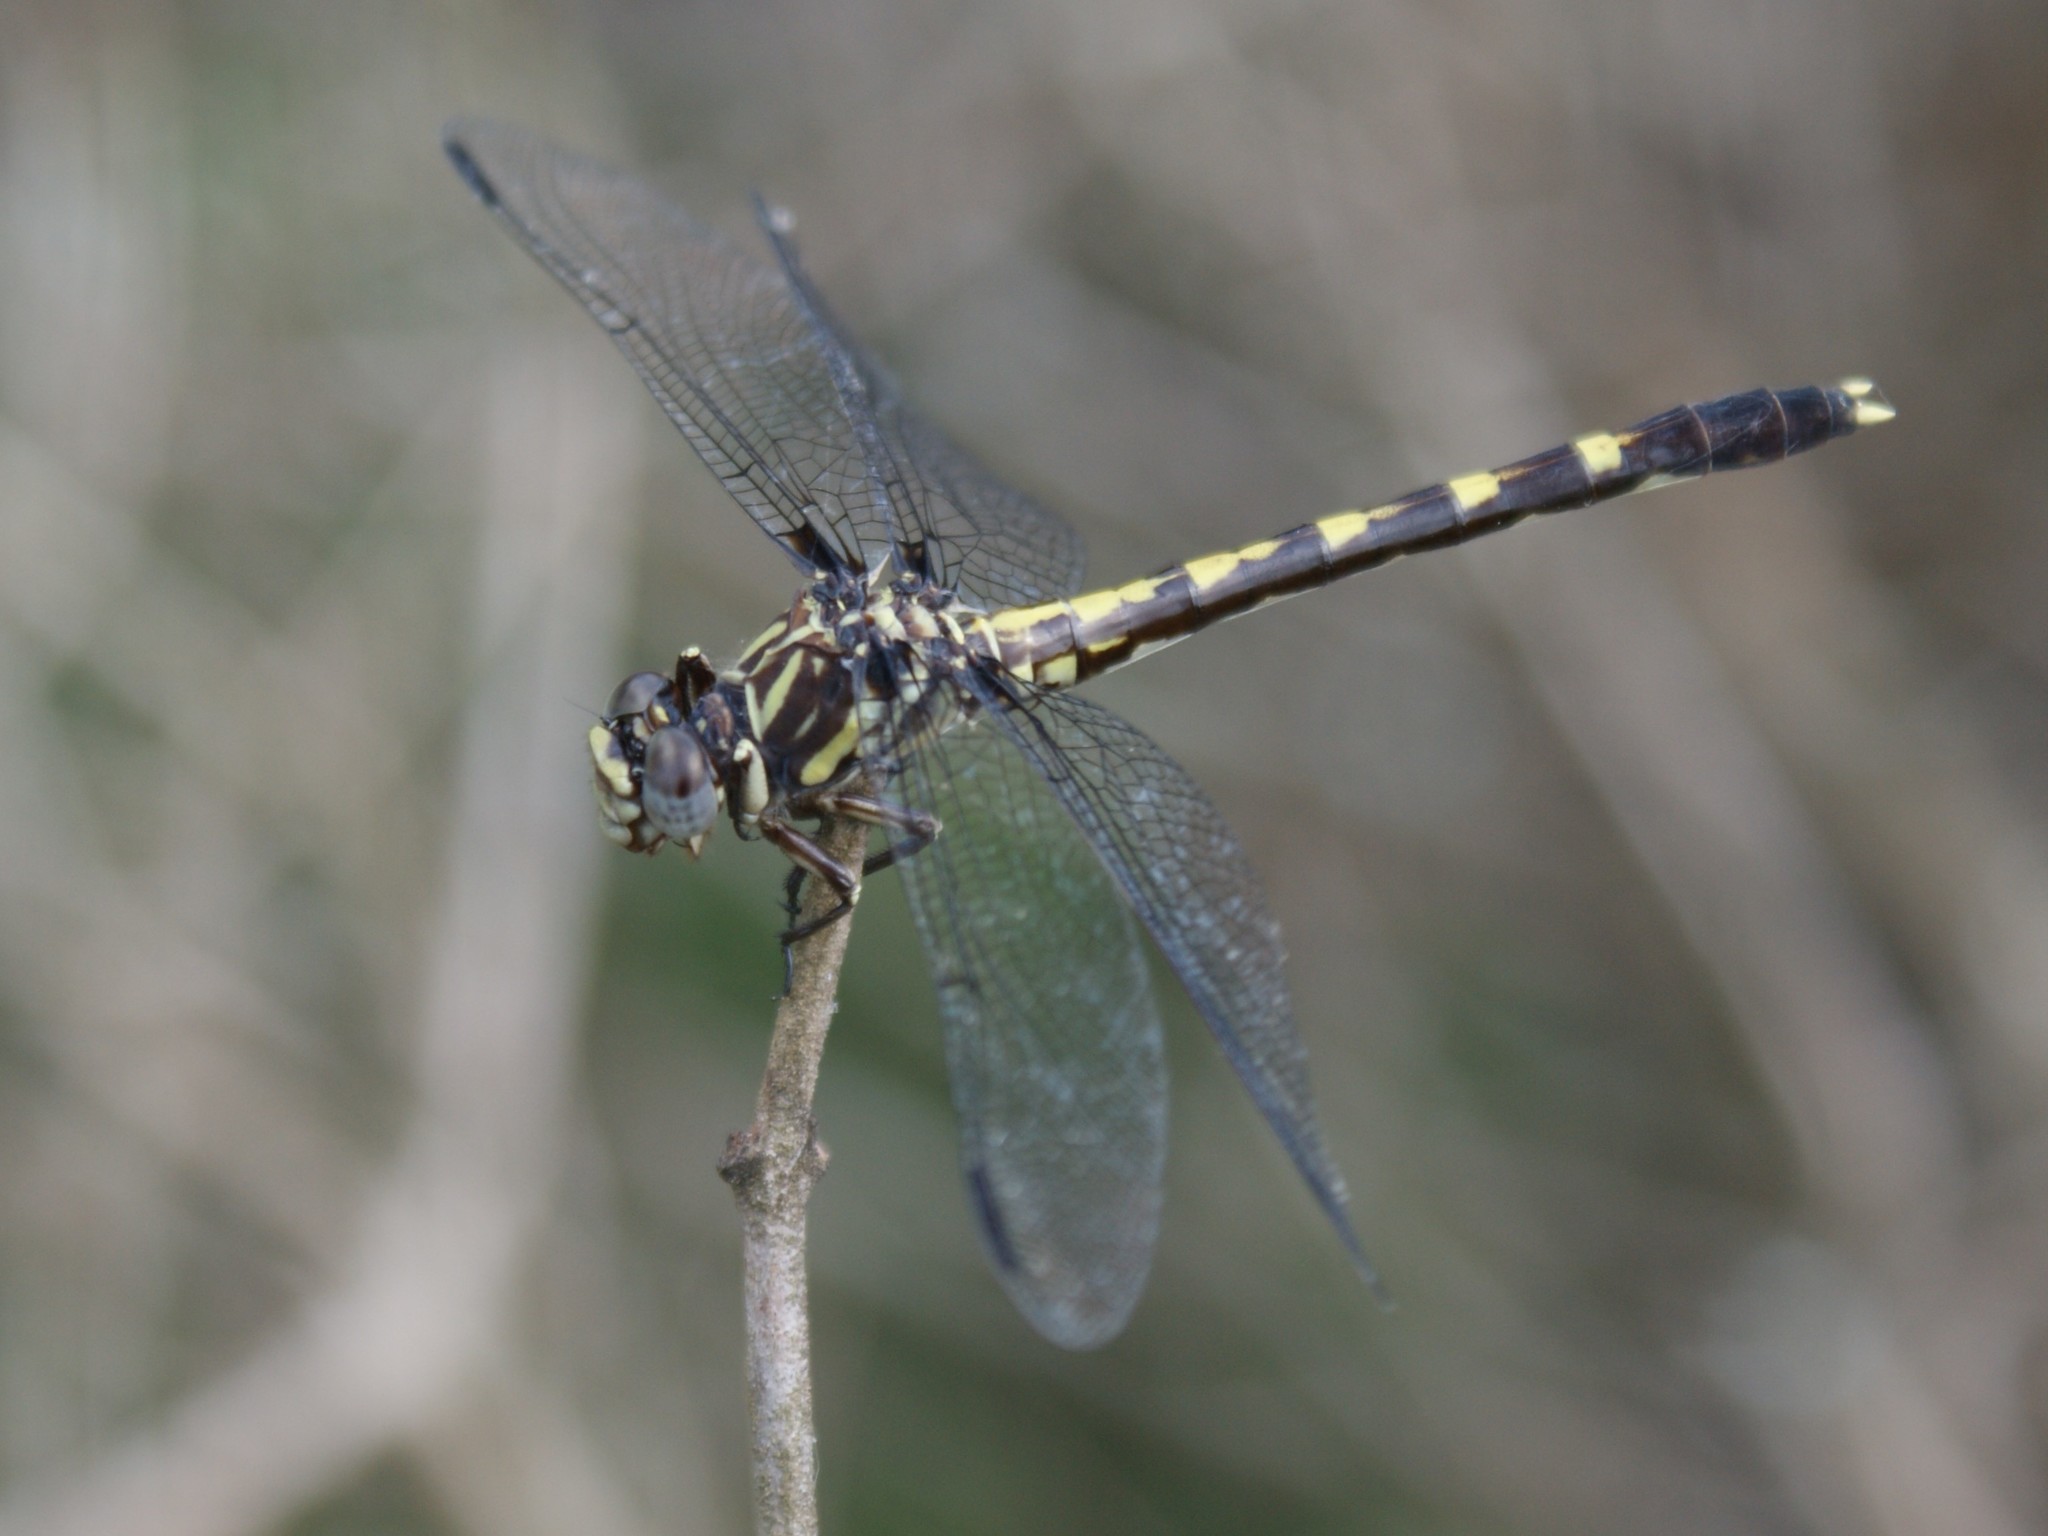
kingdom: Animalia
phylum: Arthropoda
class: Insecta
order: Odonata
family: Gomphidae
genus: Progomphus
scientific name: Progomphus obscurus
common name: Common sanddragon
